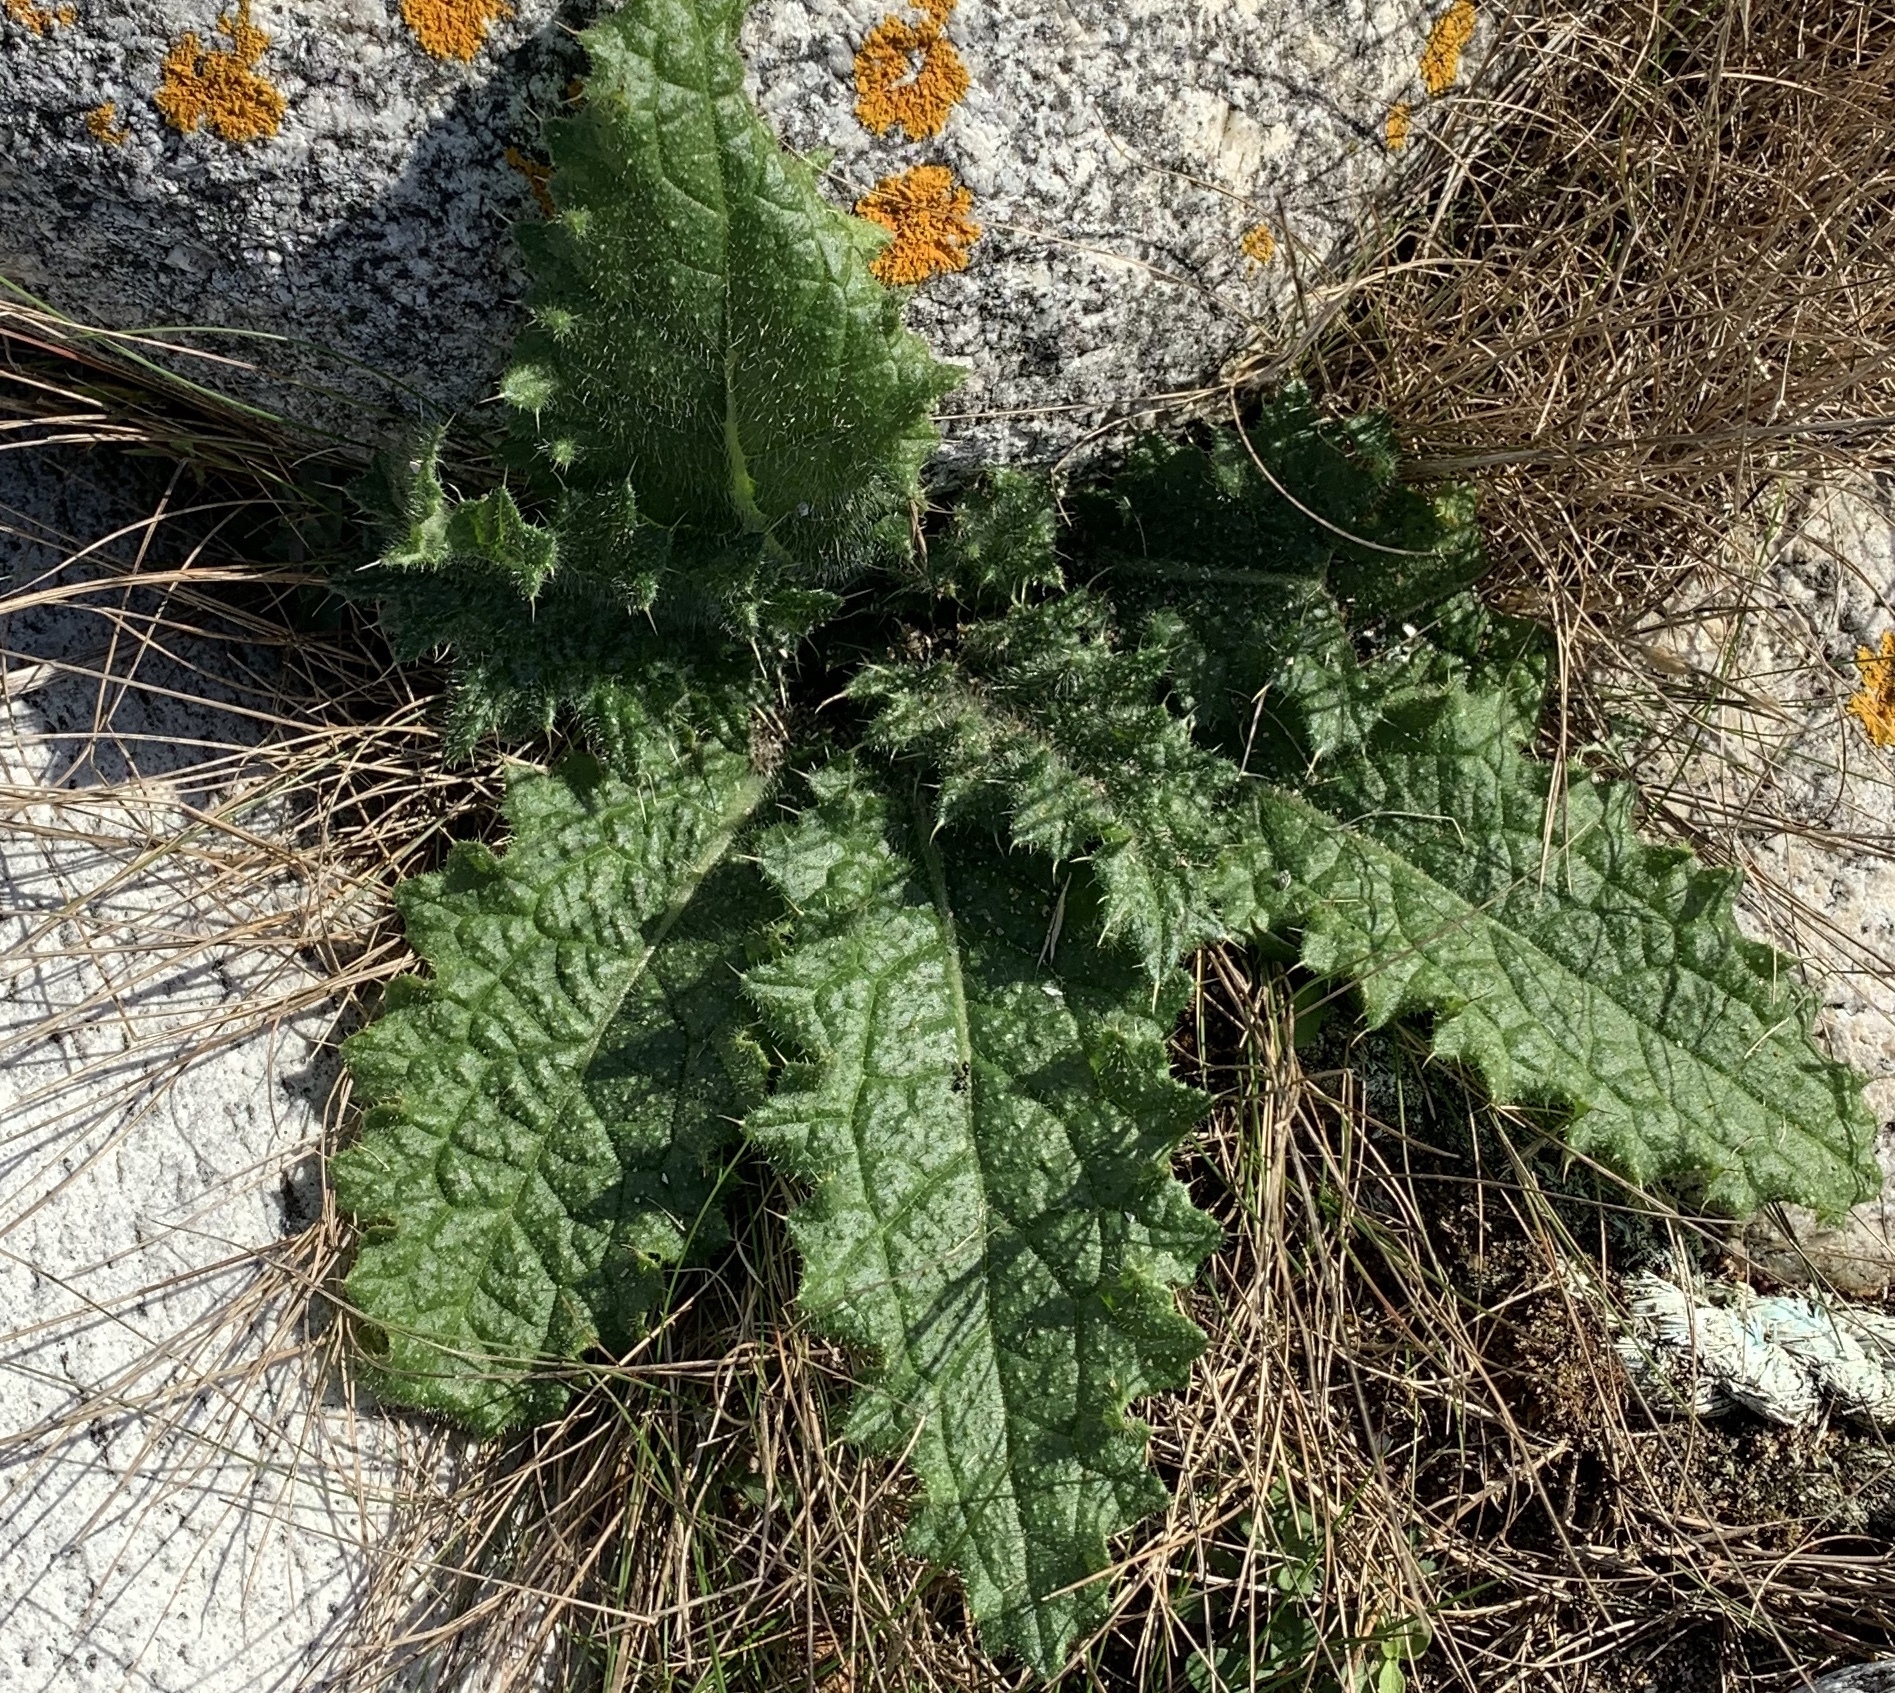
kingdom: Plantae
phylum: Tracheophyta
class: Magnoliopsida
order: Asterales
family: Asteraceae
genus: Cirsium
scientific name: Cirsium vulgare
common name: Bull thistle
